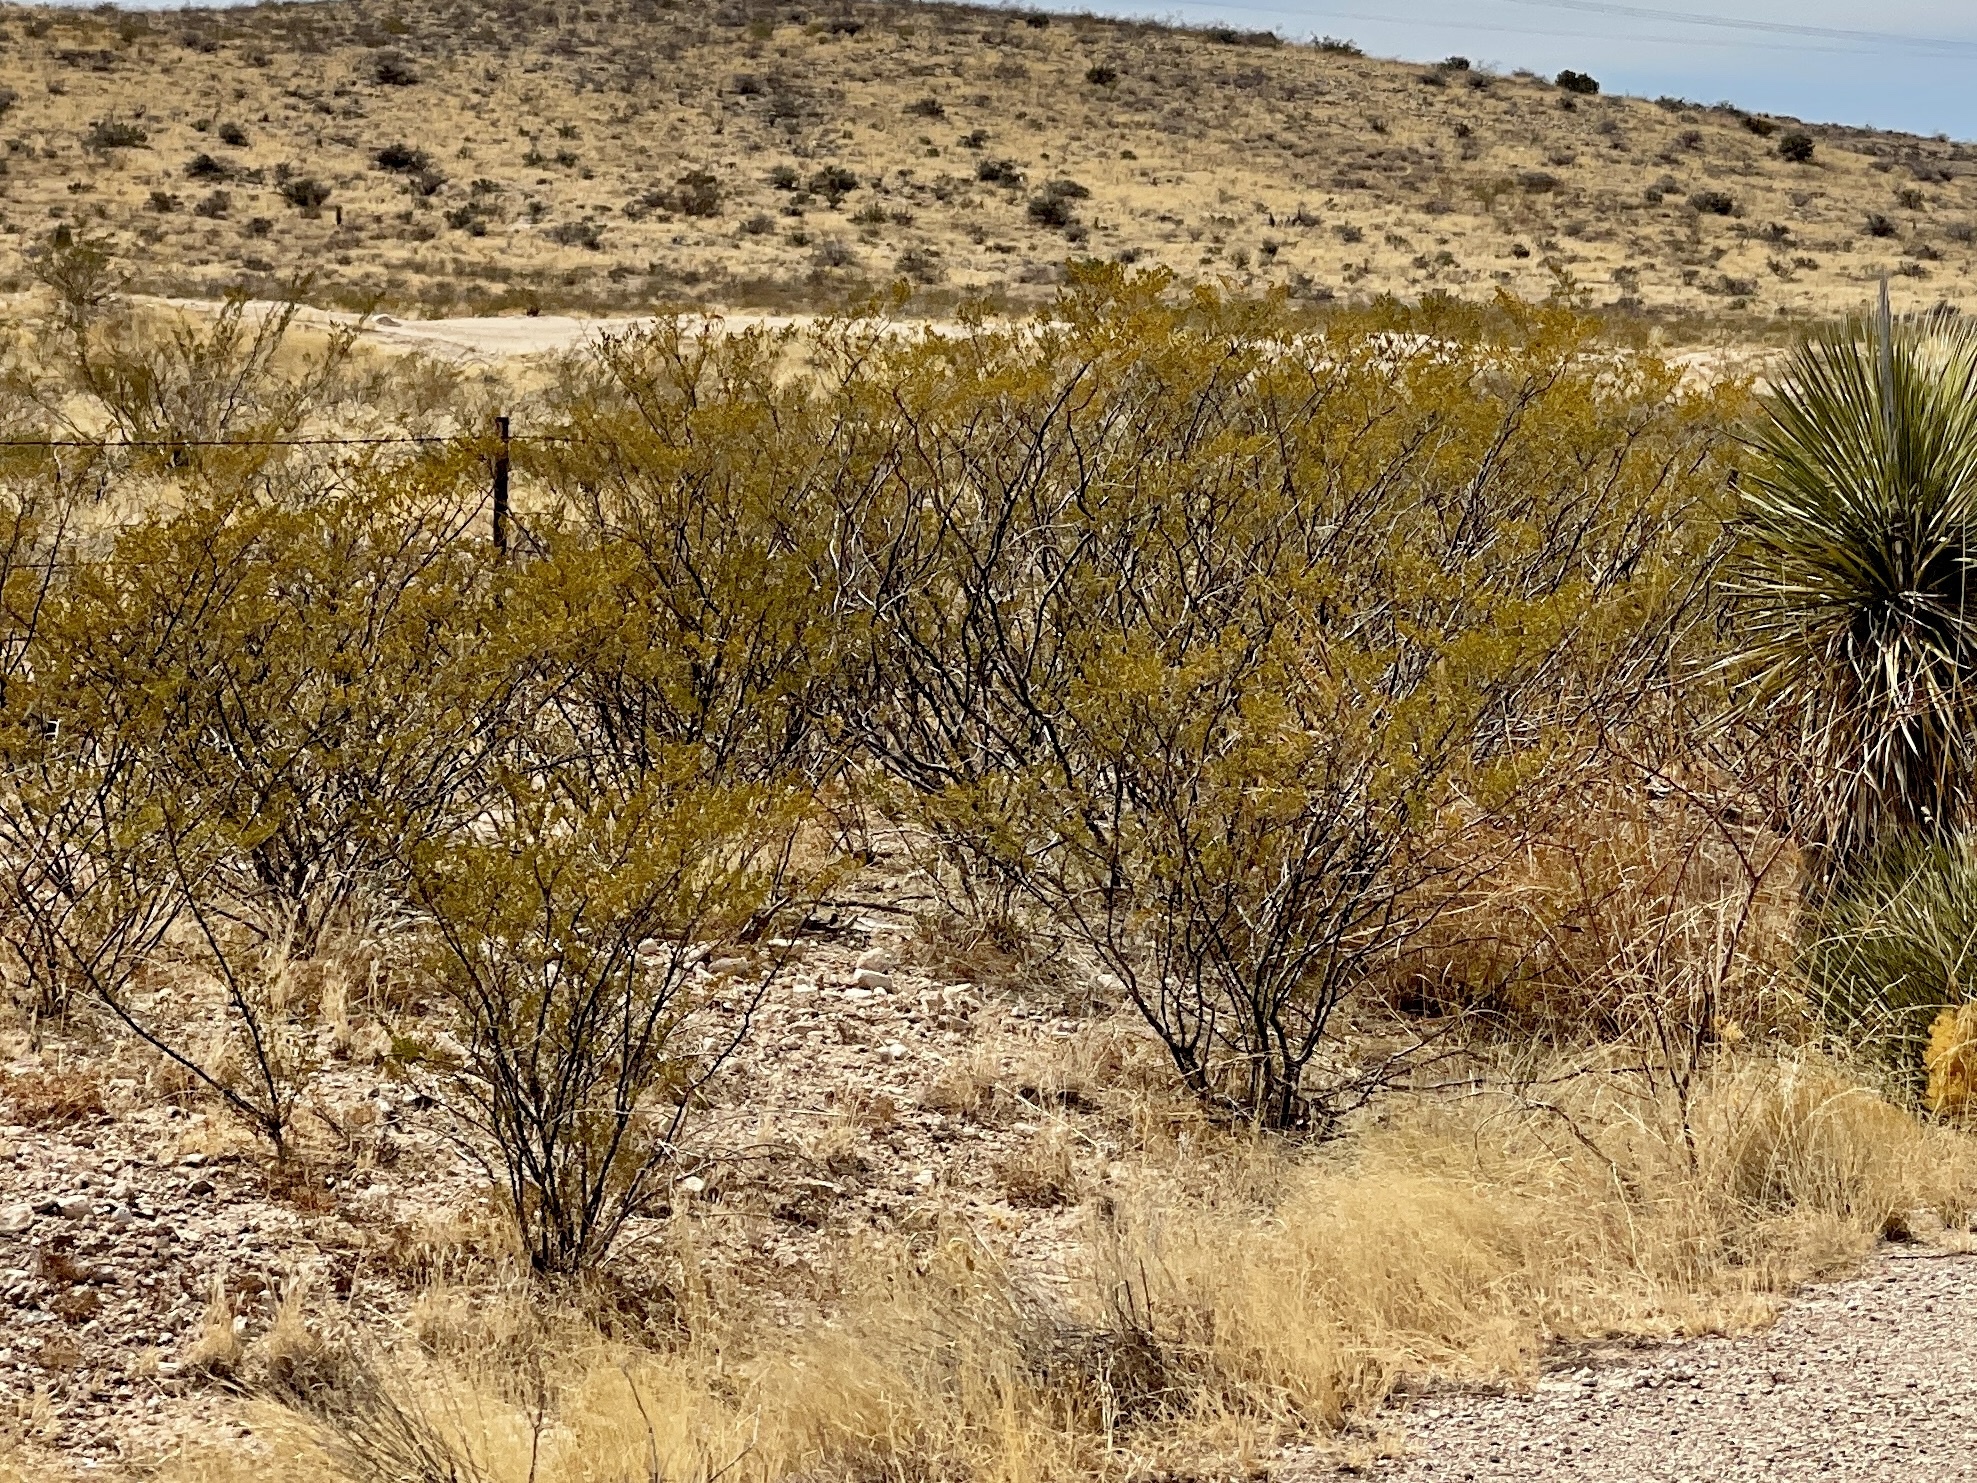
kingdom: Plantae
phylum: Tracheophyta
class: Magnoliopsida
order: Zygophyllales
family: Zygophyllaceae
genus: Larrea
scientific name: Larrea tridentata
